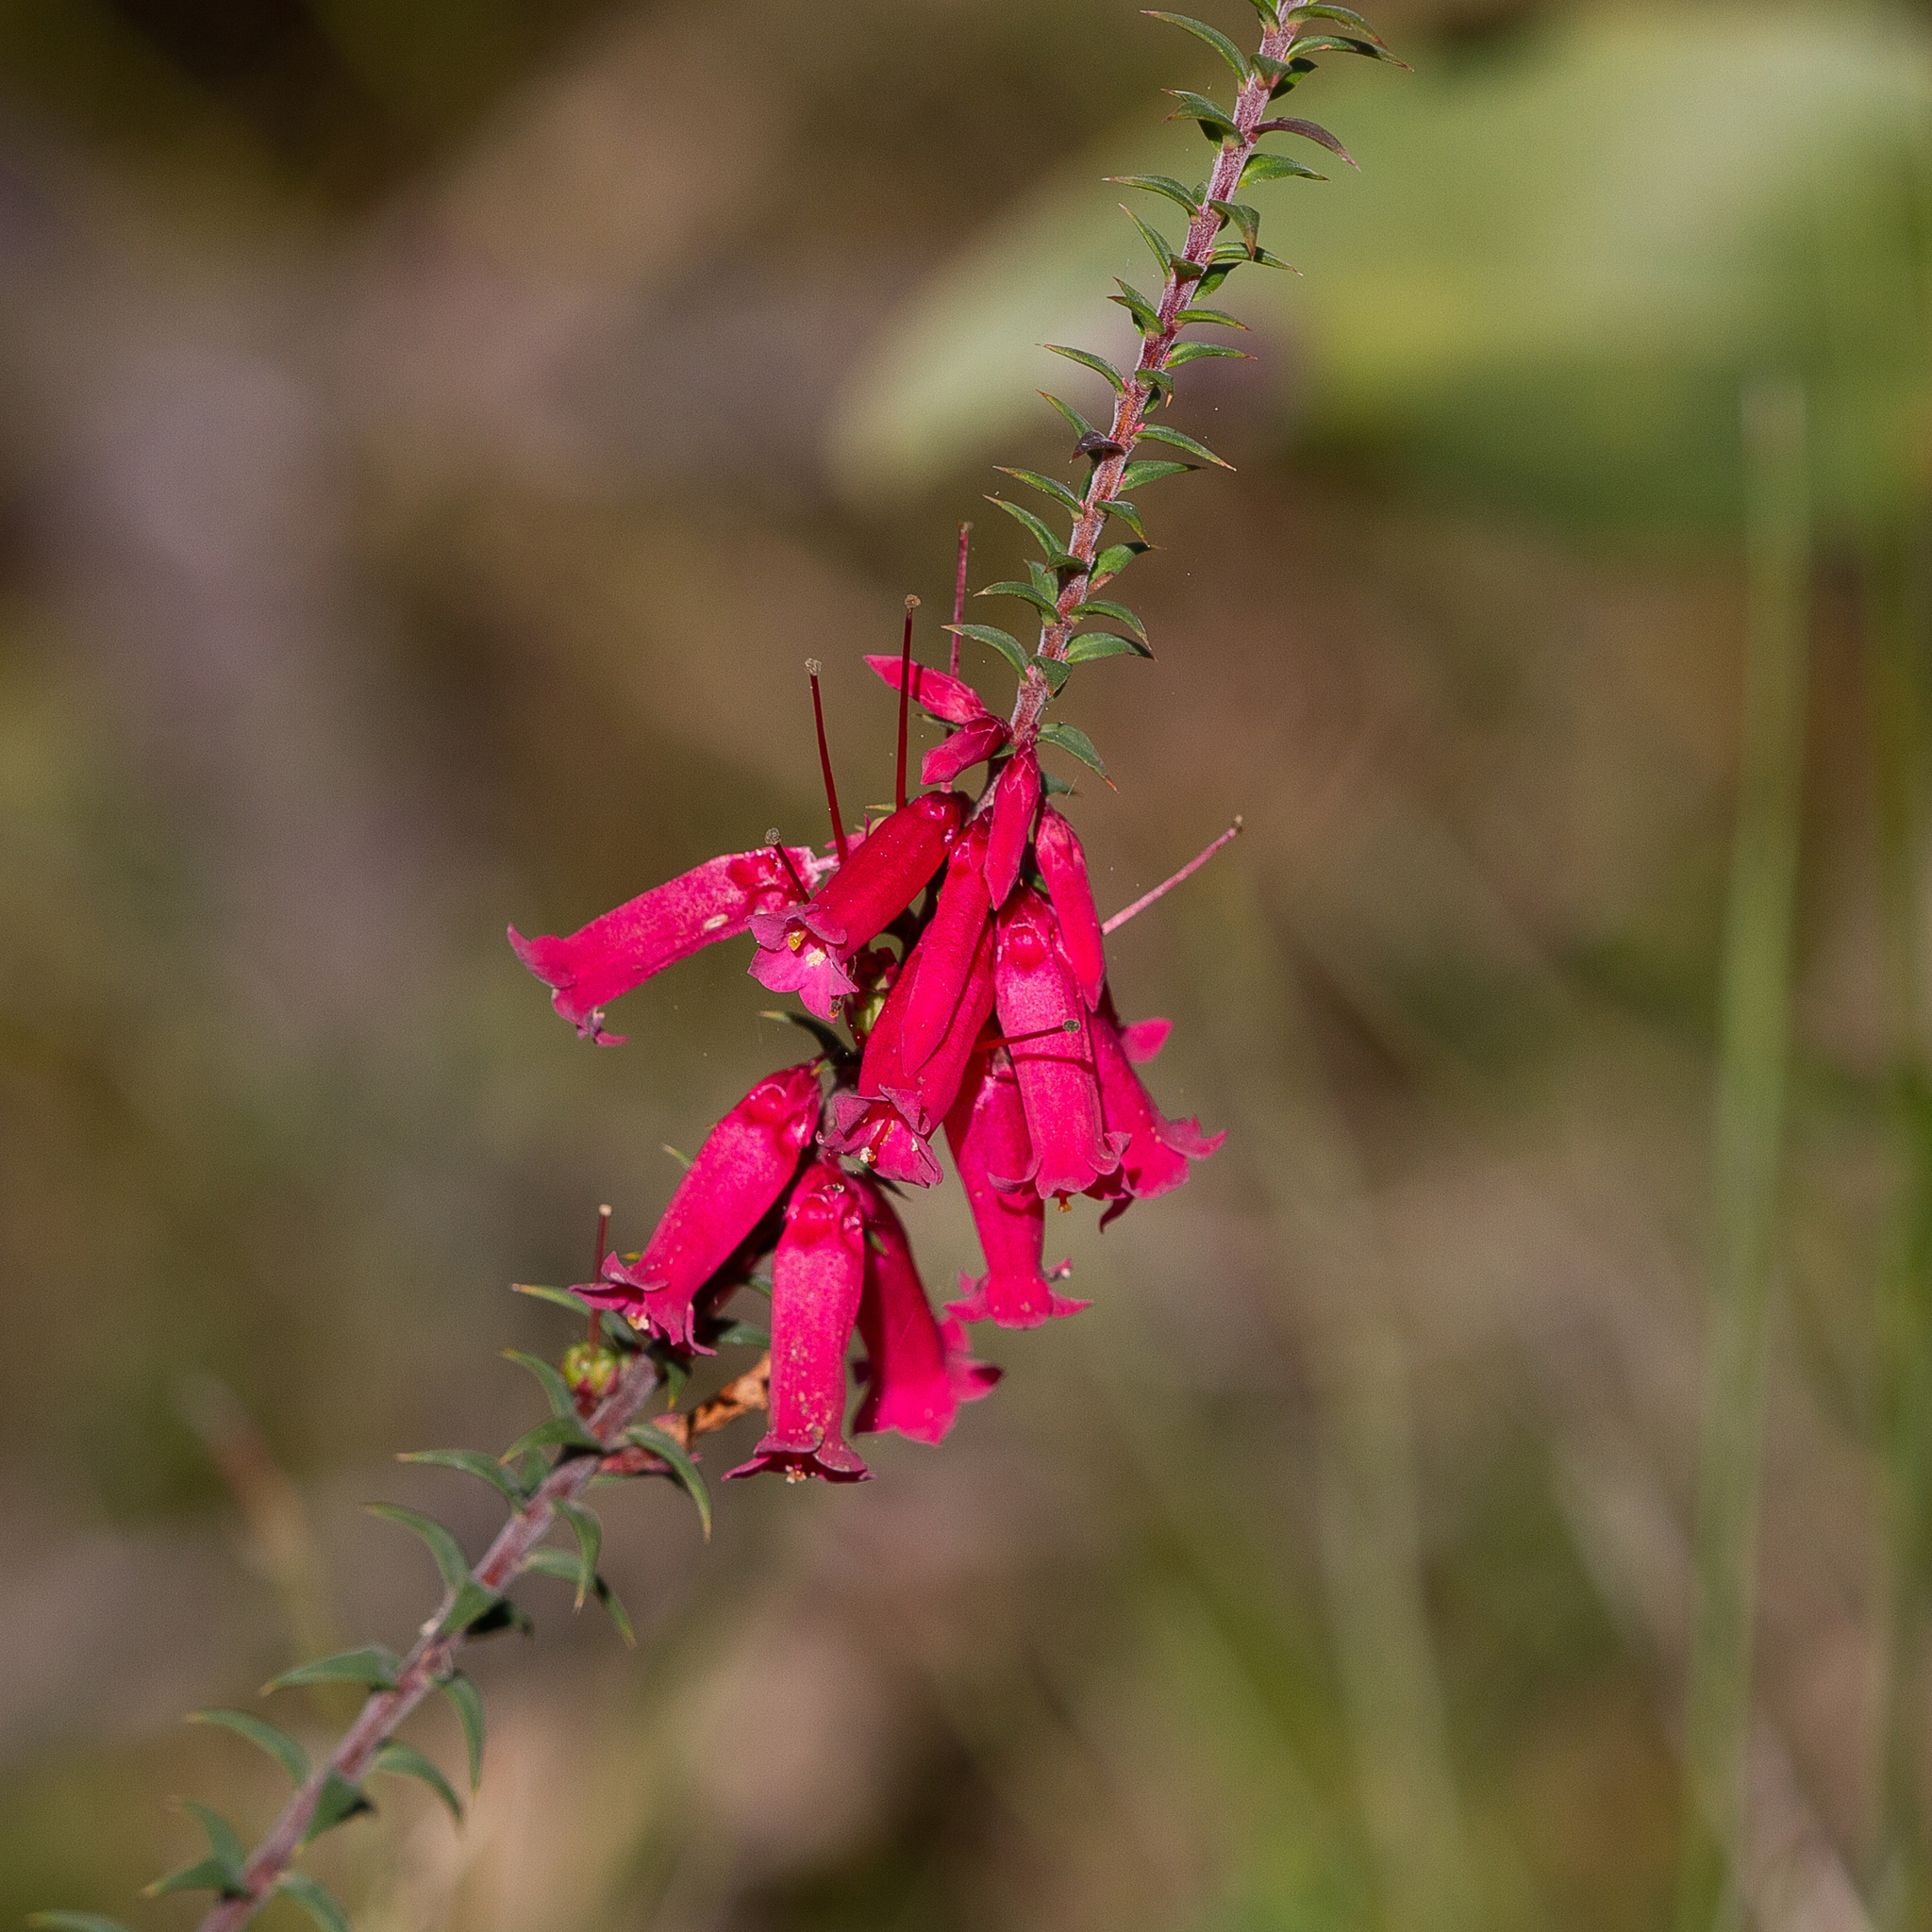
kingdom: Plantae
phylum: Tracheophyta
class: Magnoliopsida
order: Ericales
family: Ericaceae
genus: Epacris
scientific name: Epacris impressa
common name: Common-heath
